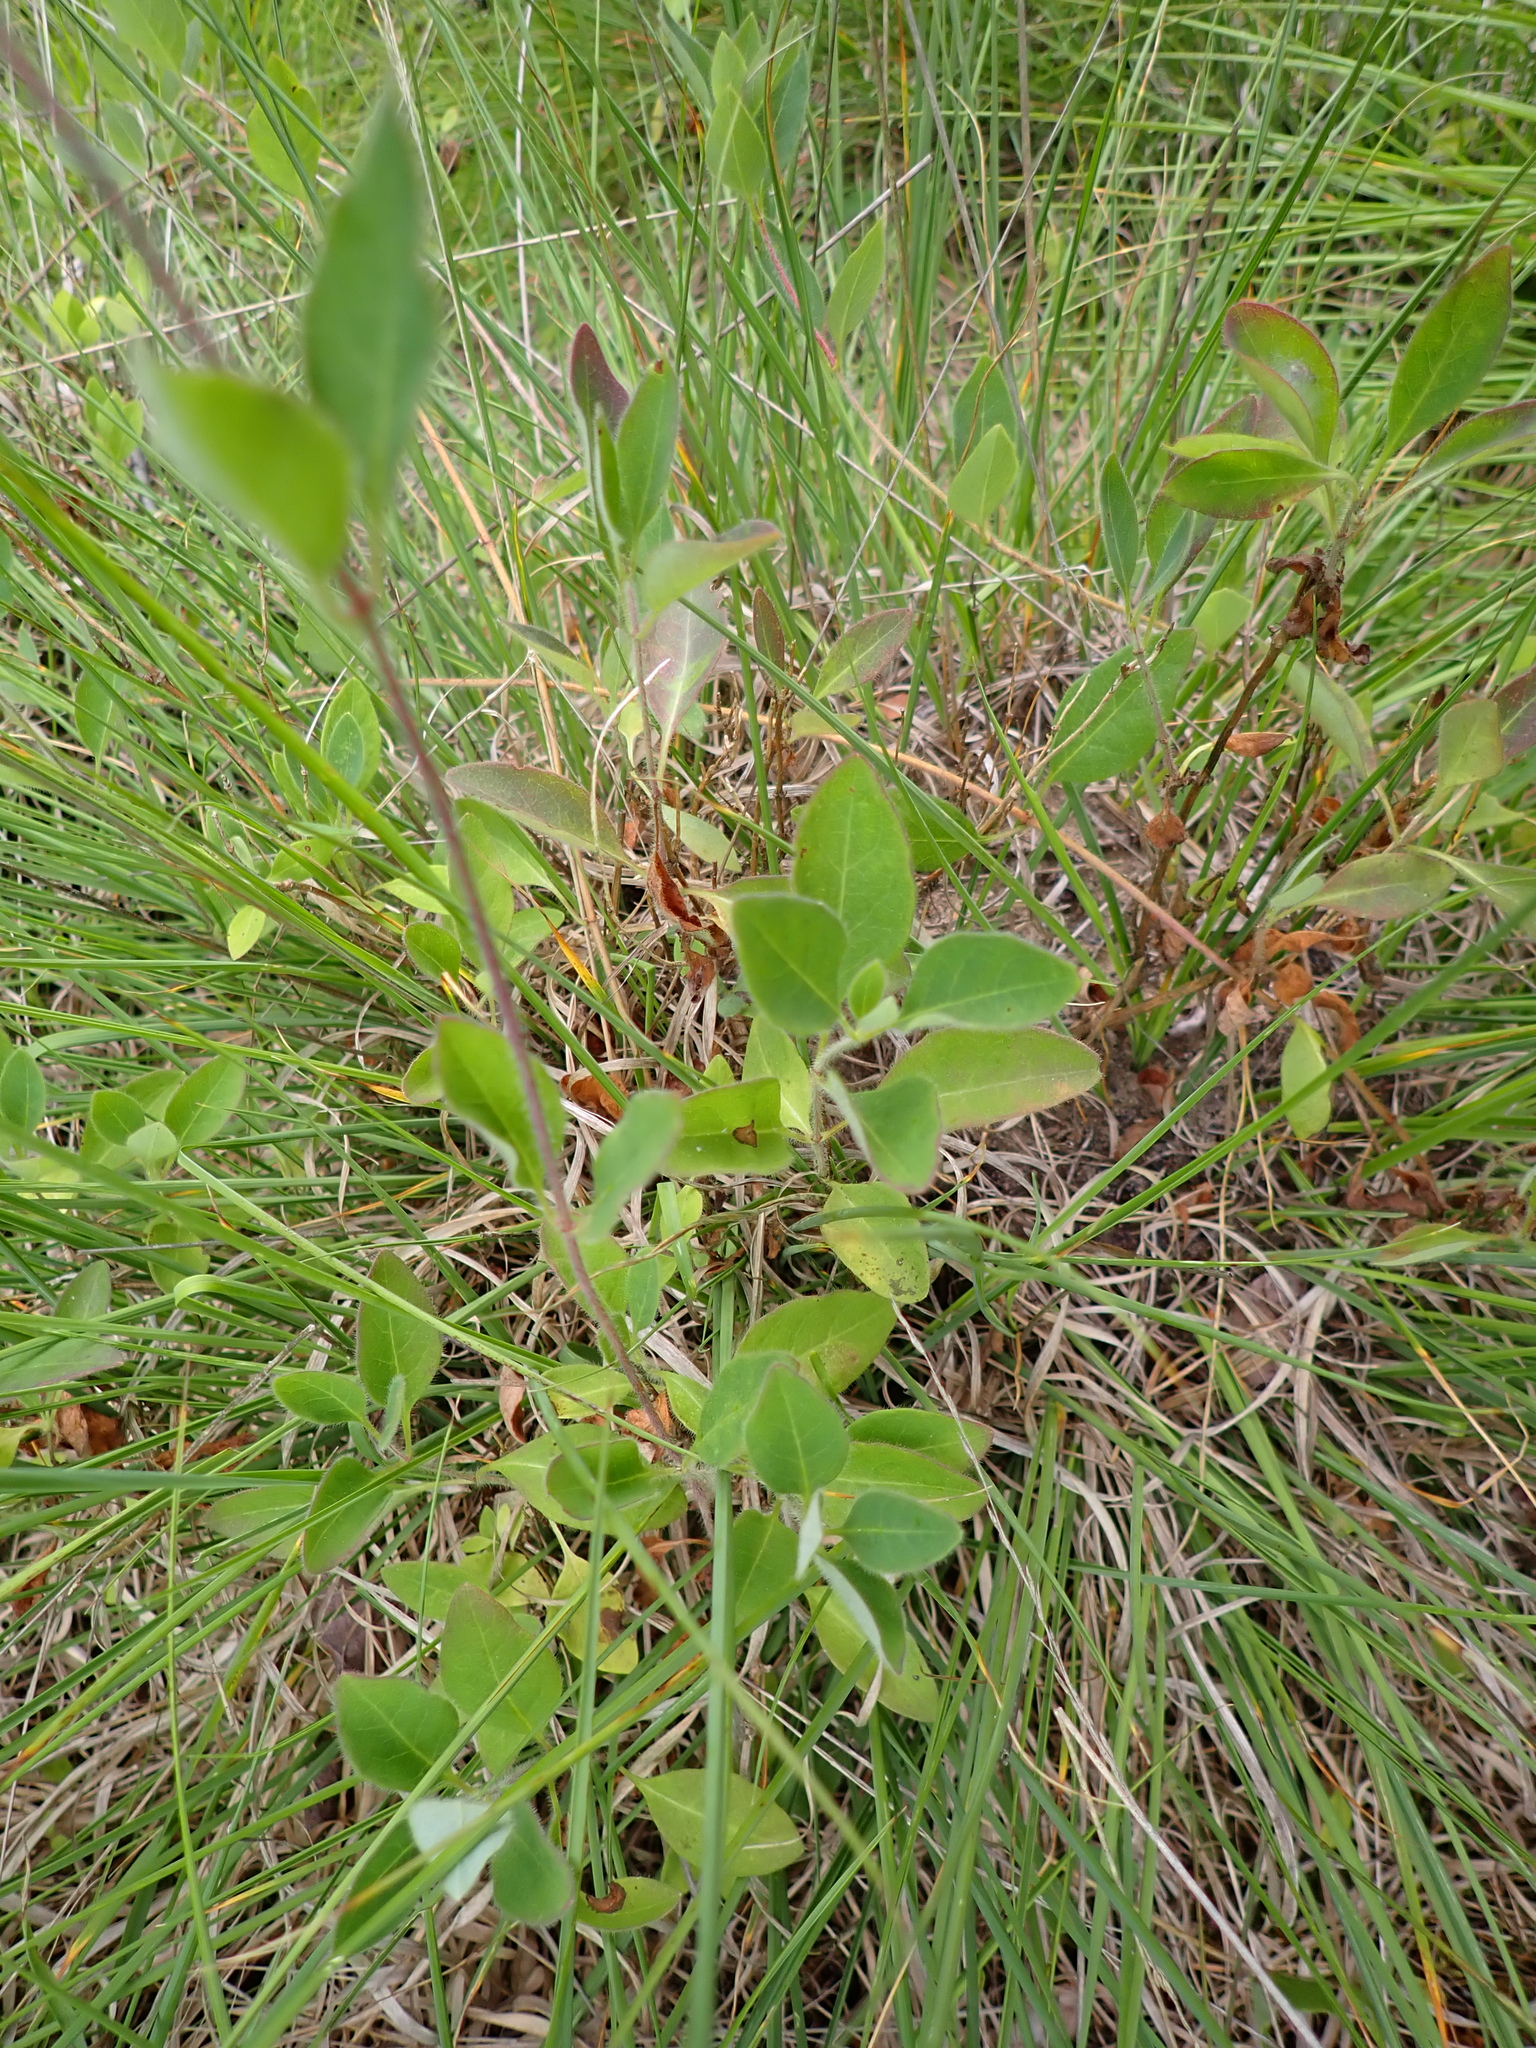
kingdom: Plantae
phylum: Tracheophyta
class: Magnoliopsida
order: Dipsacales
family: Caprifoliaceae
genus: Lonicera
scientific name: Lonicera periclymenum
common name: European honeysuckle
